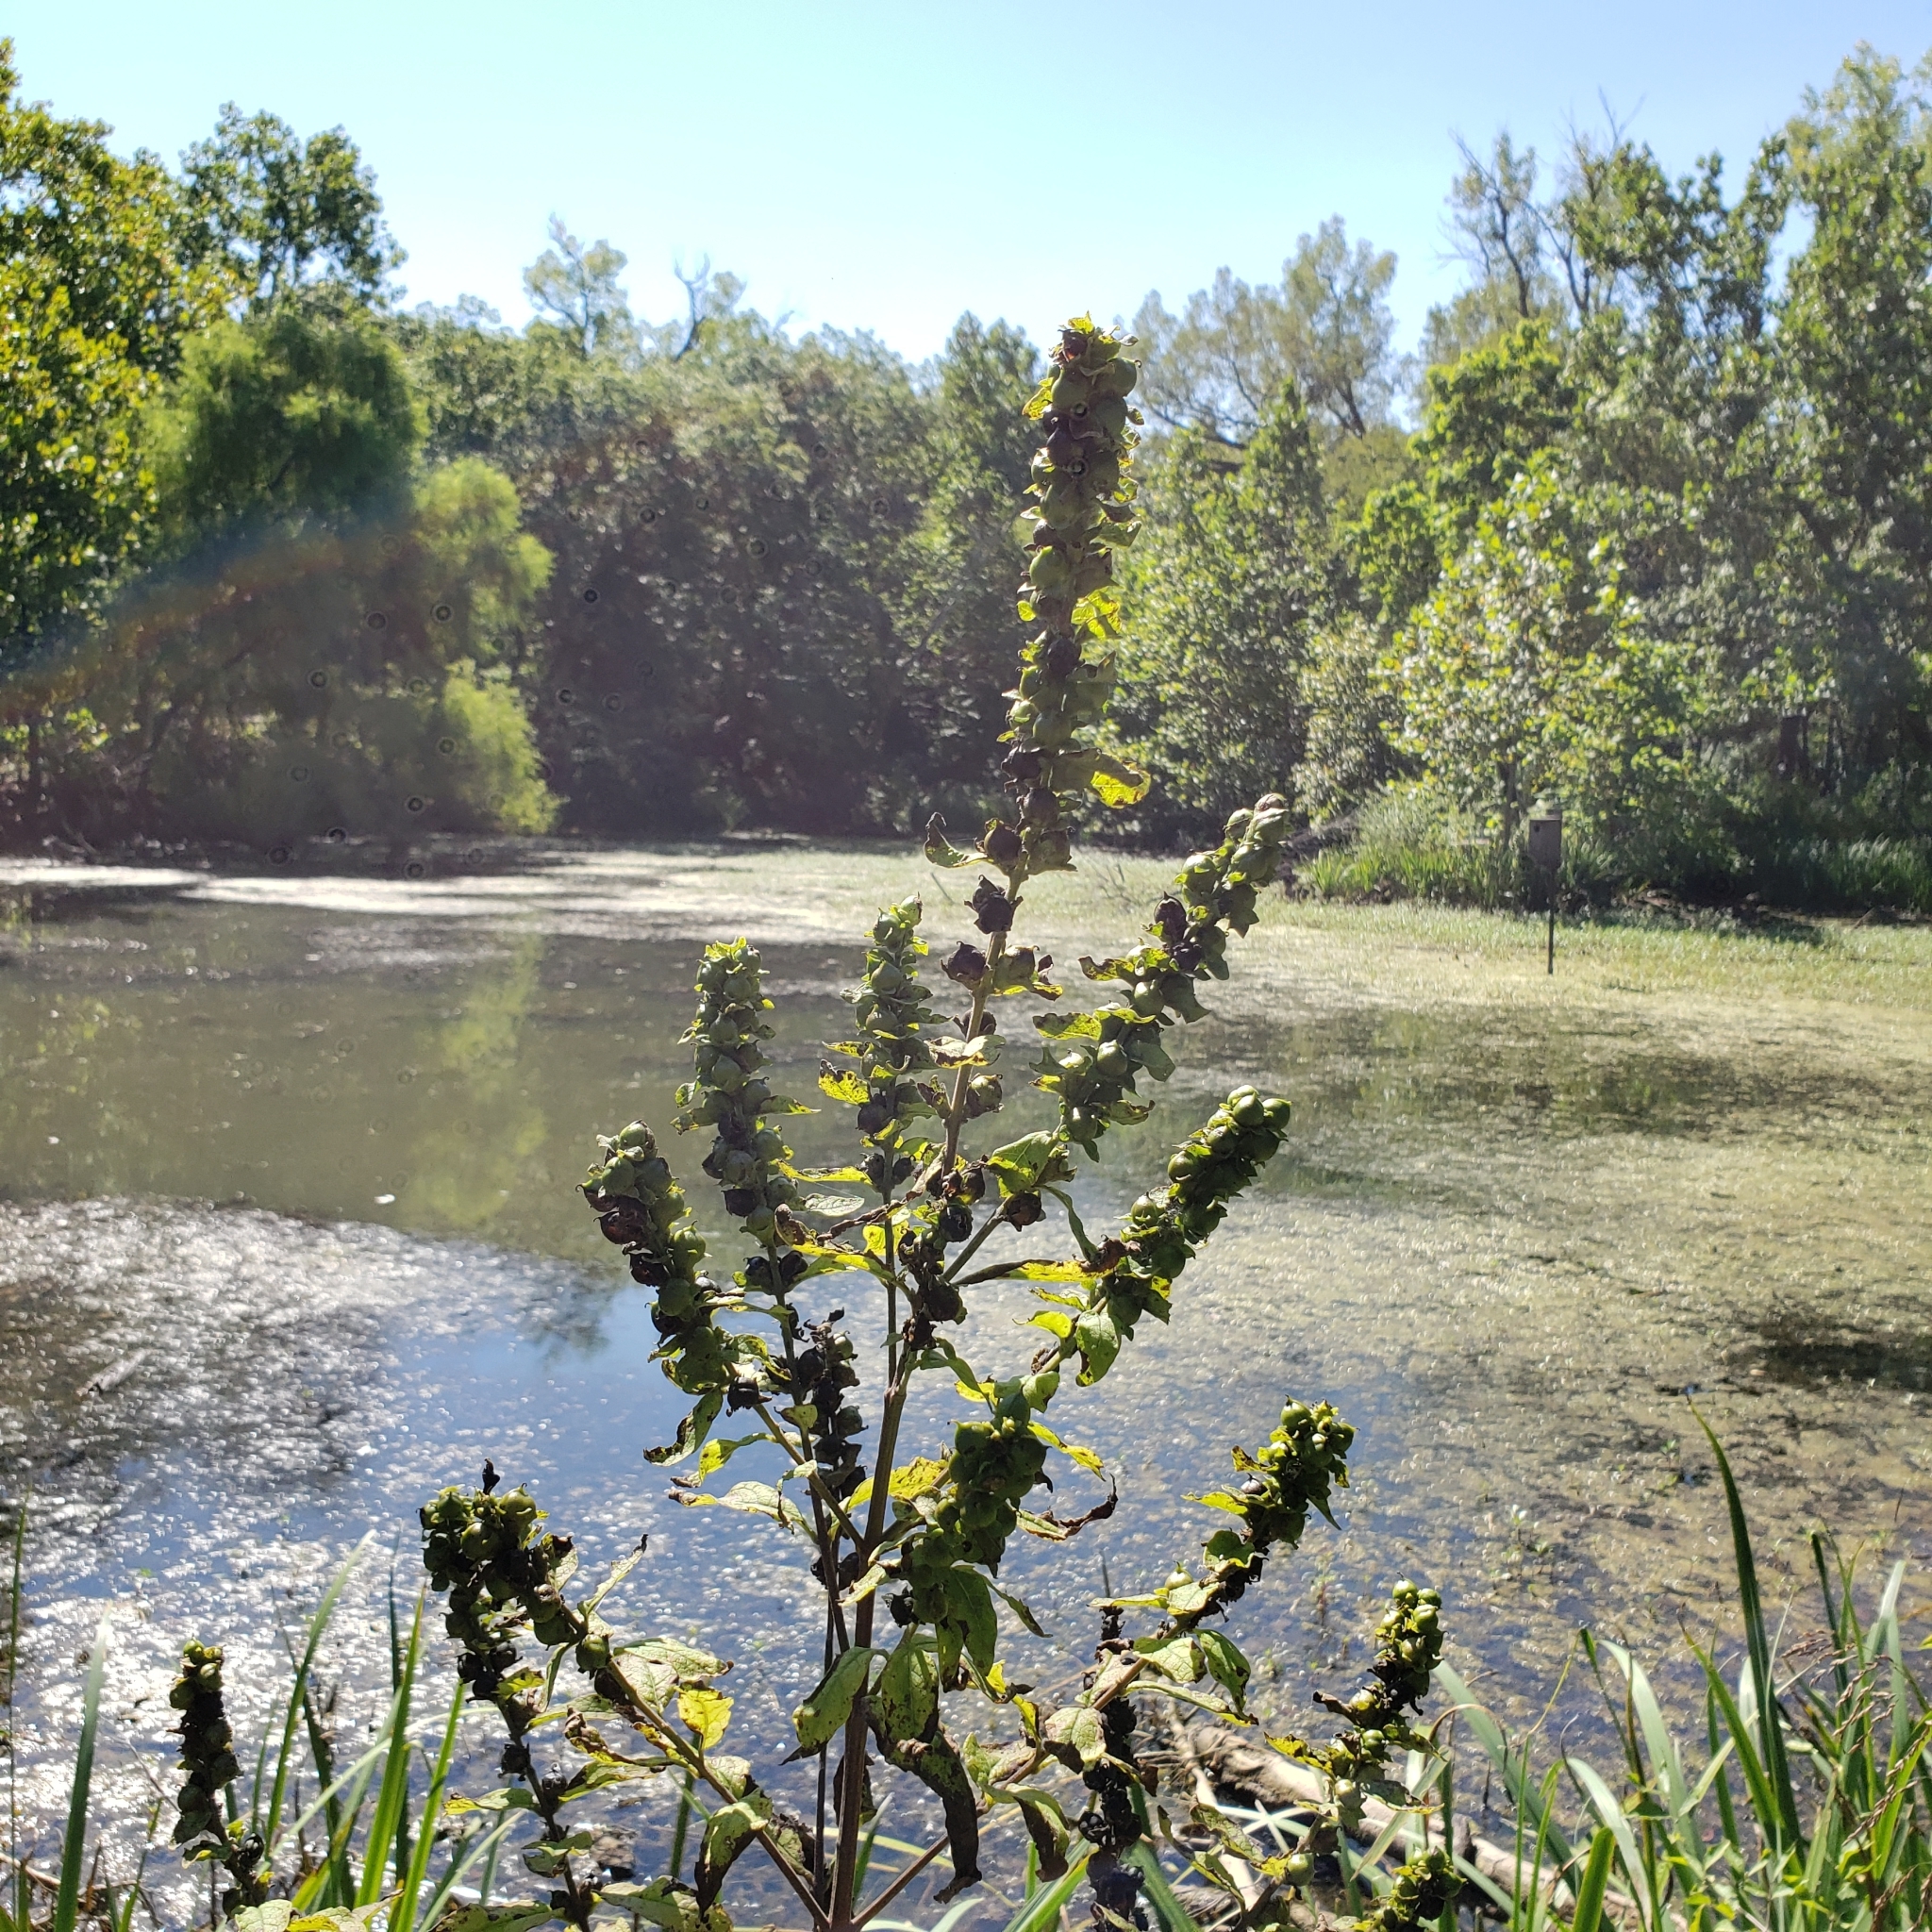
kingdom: Plantae
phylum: Tracheophyta
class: Magnoliopsida
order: Lamiales
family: Orobanchaceae
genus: Dasistoma
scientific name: Dasistoma macrophyllum
